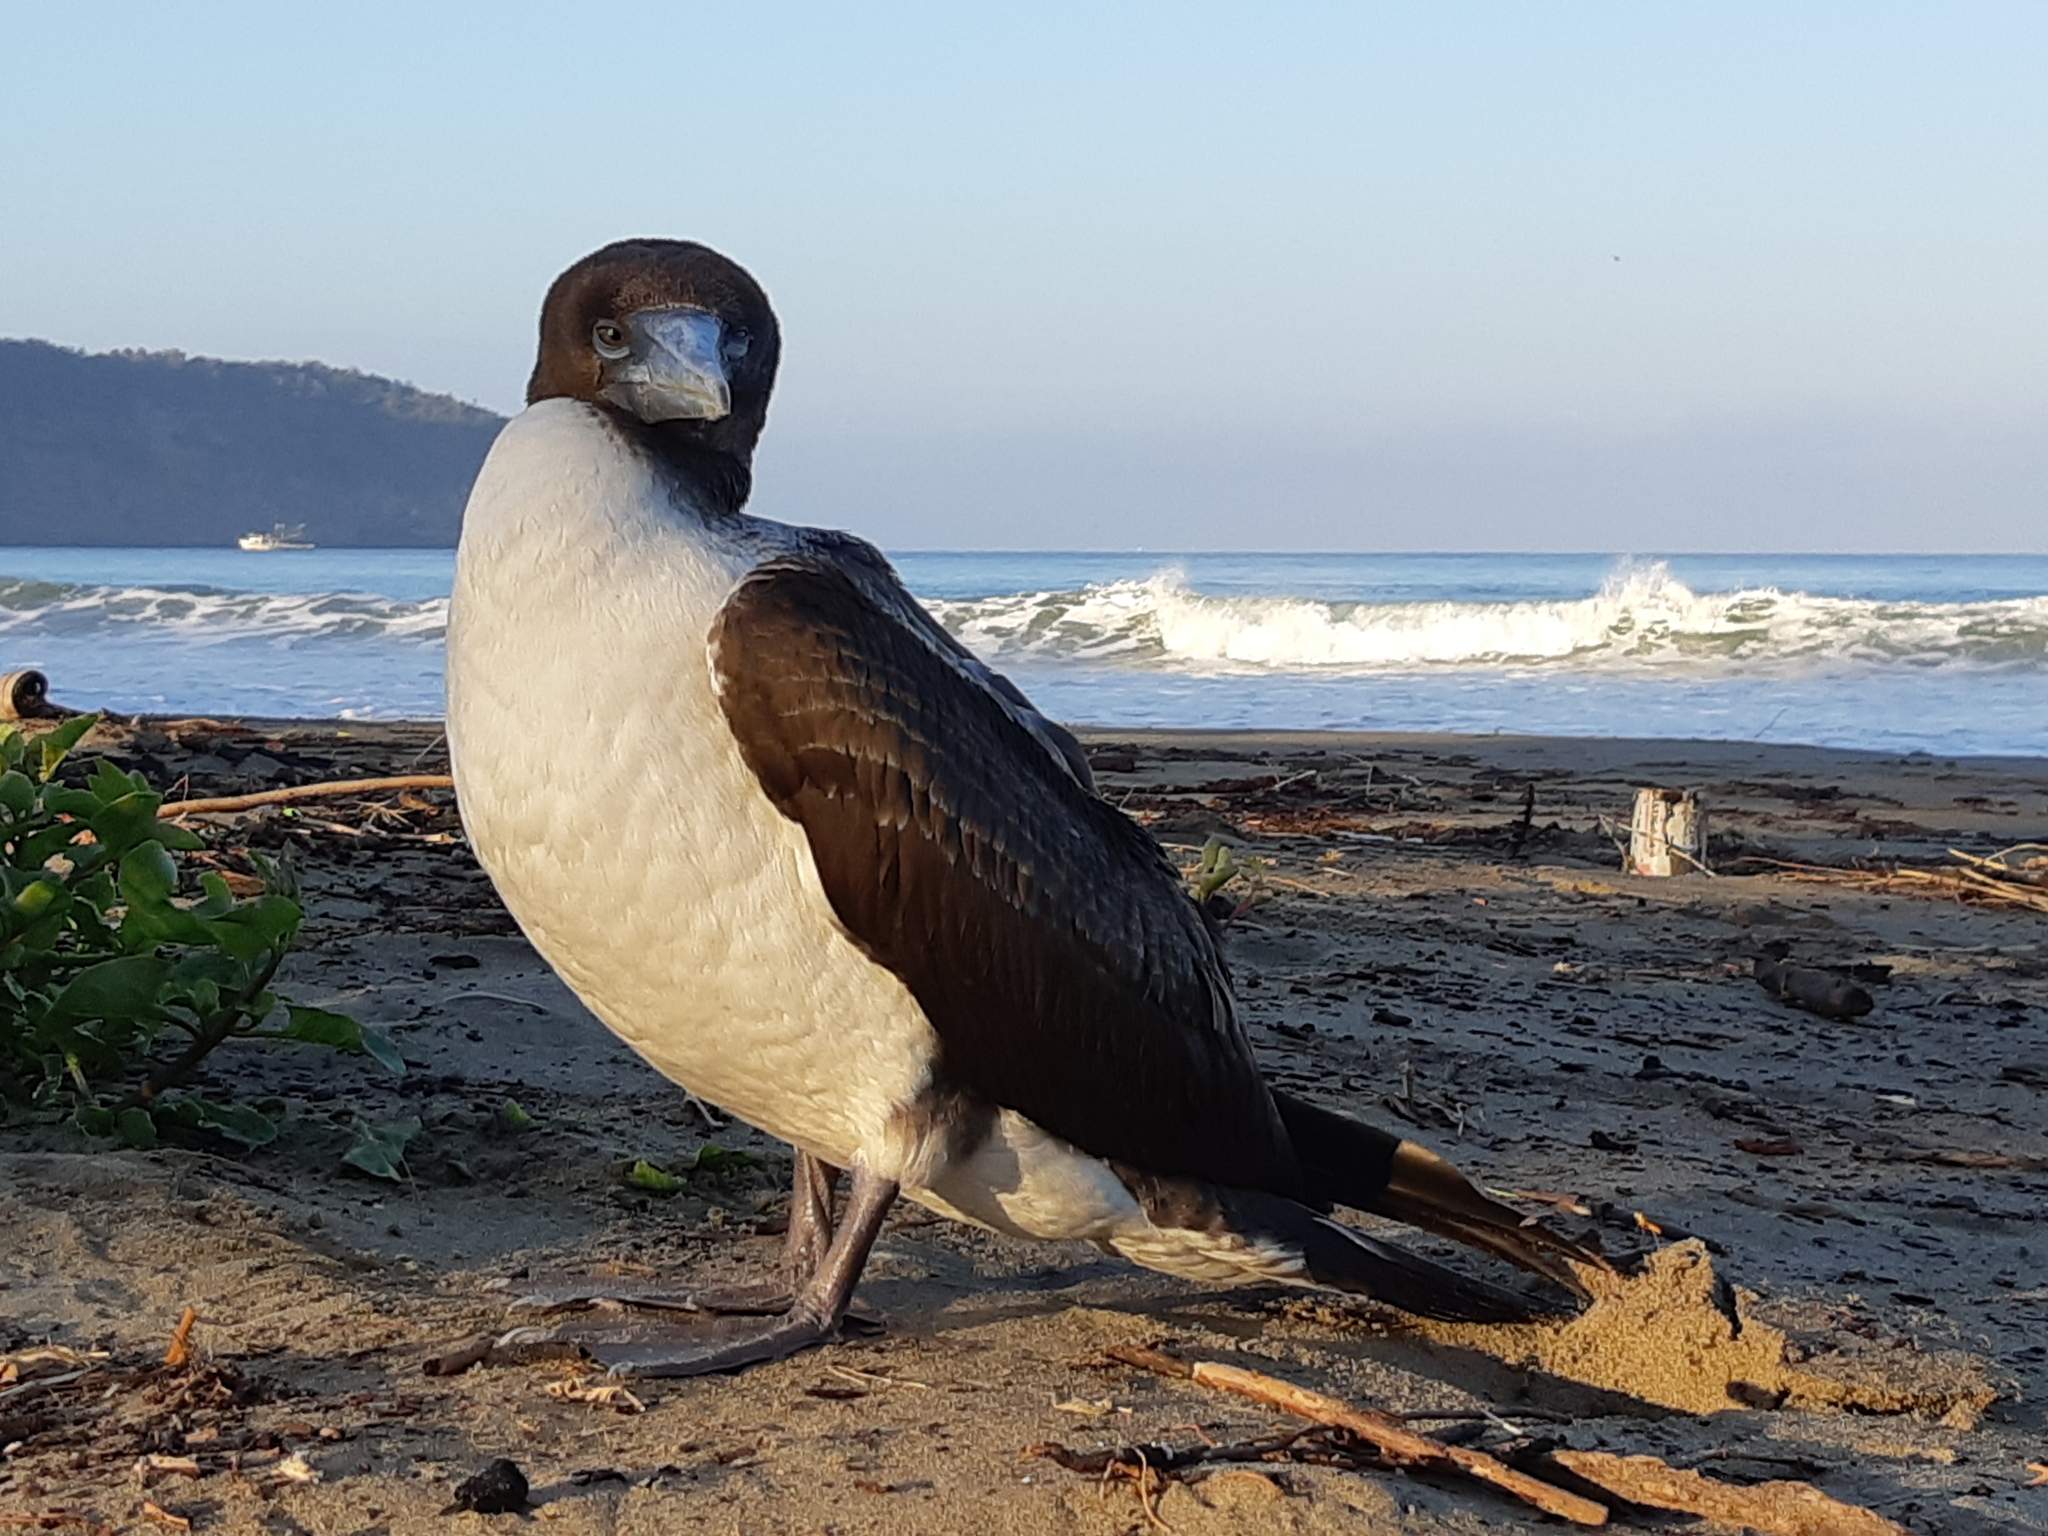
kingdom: Animalia
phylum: Chordata
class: Aves
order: Suliformes
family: Sulidae
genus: Sula
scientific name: Sula granti
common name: Nazca booby
